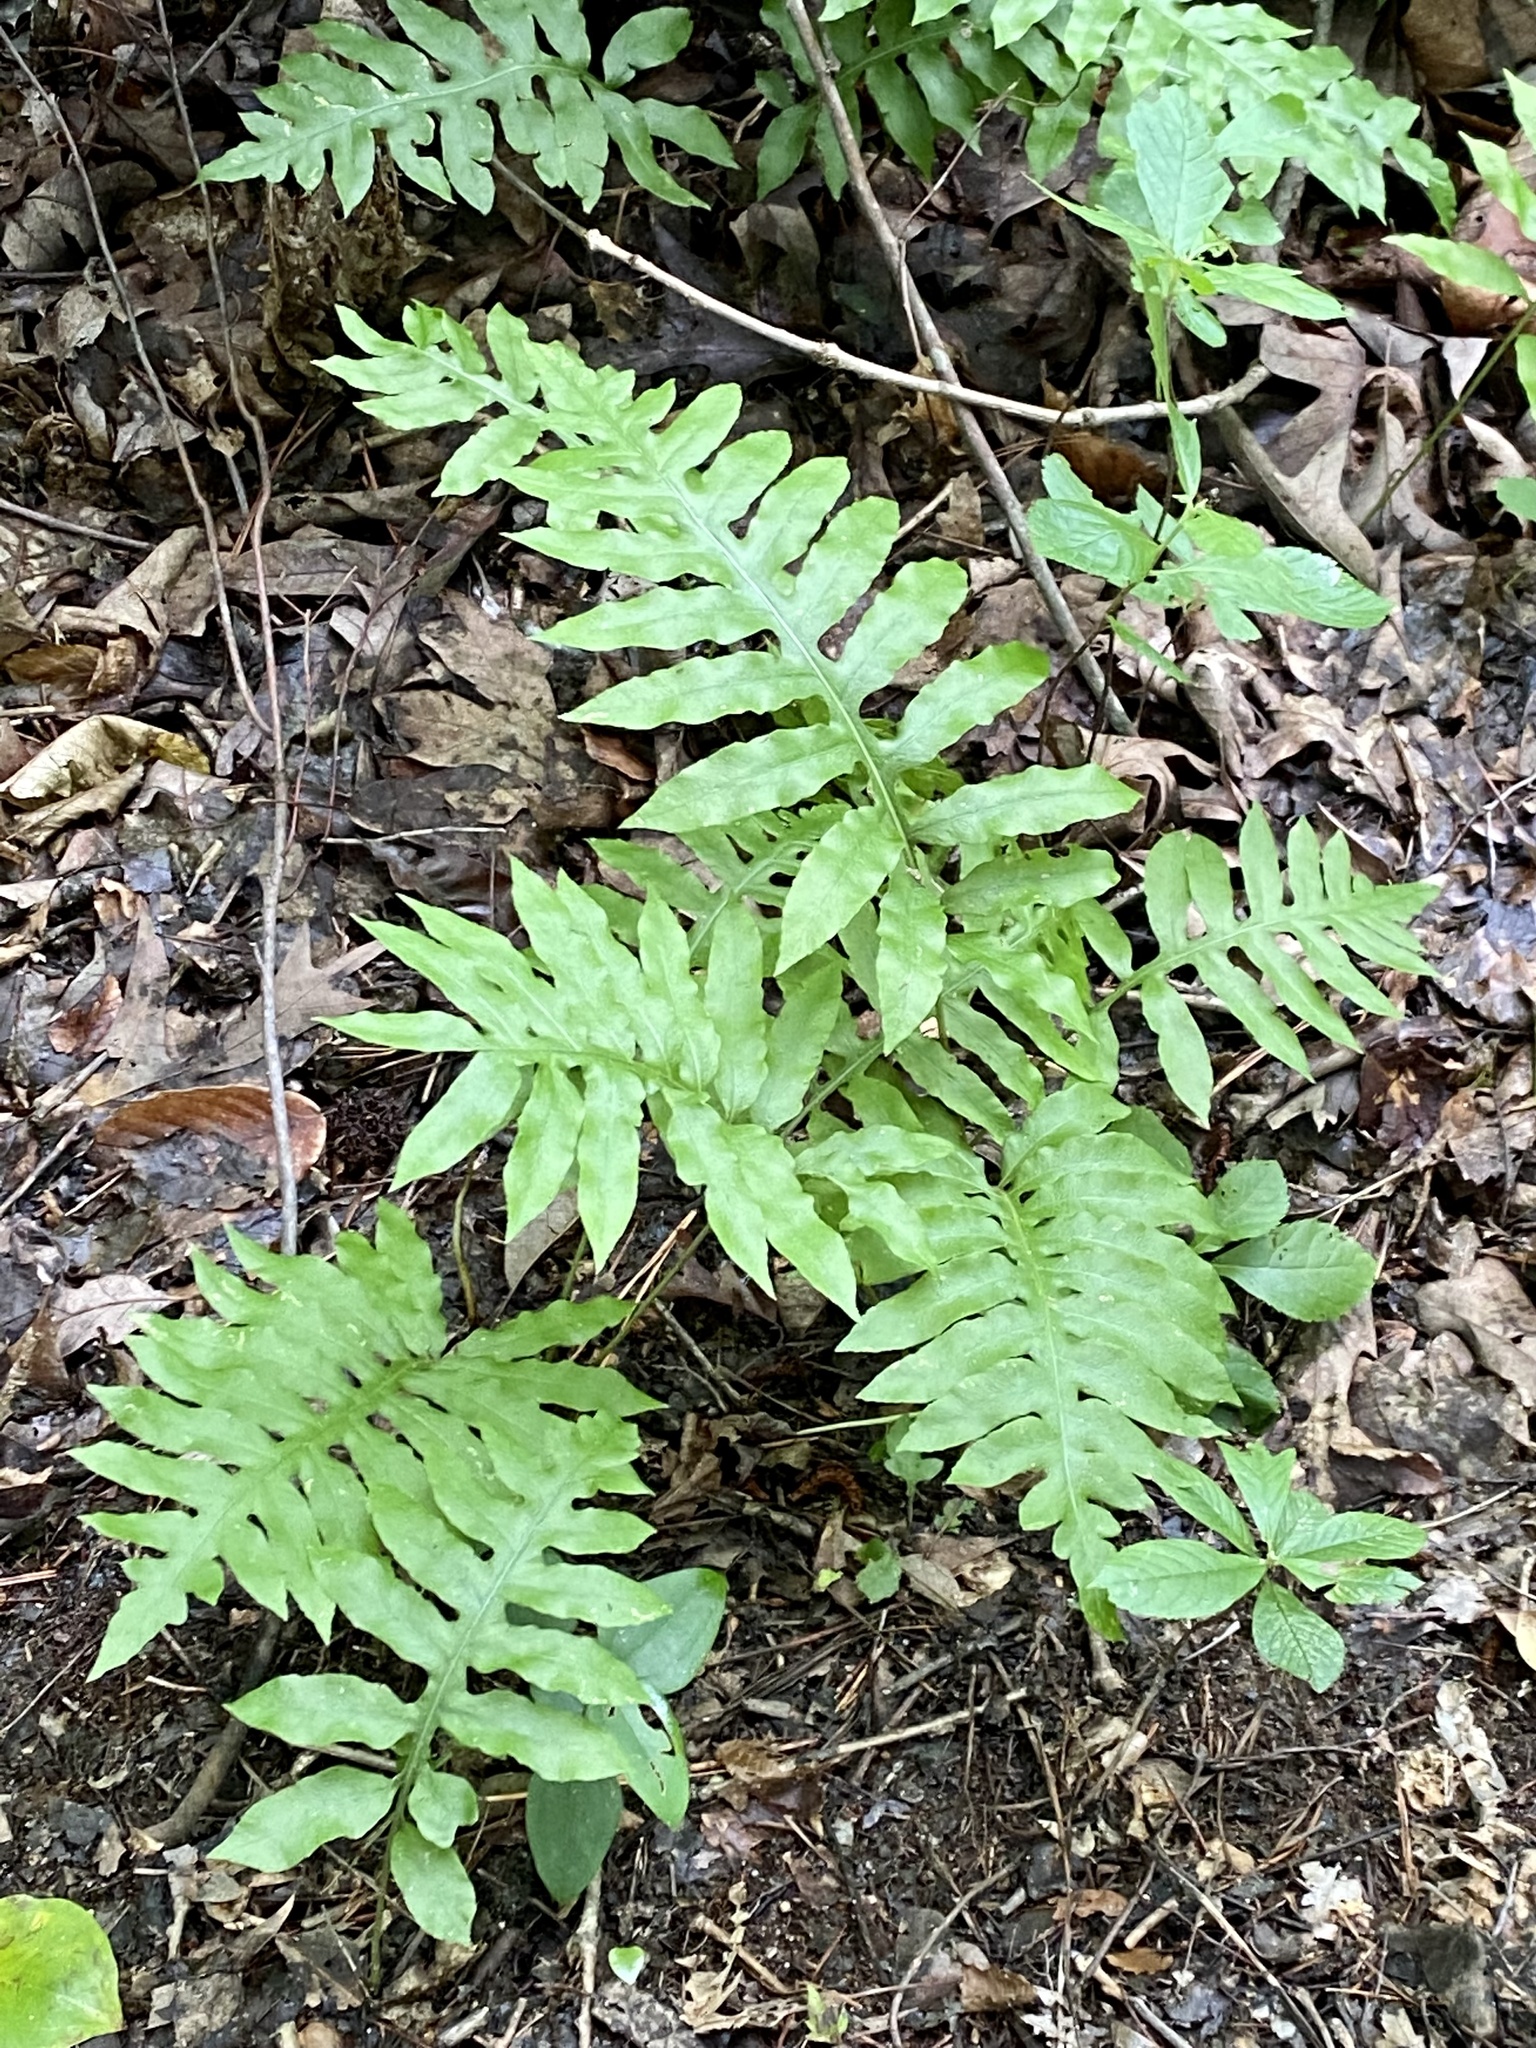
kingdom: Plantae
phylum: Tracheophyta
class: Polypodiopsida
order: Polypodiales
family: Blechnaceae
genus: Lorinseria
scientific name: Lorinseria areolata
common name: Dwarf chain fern
